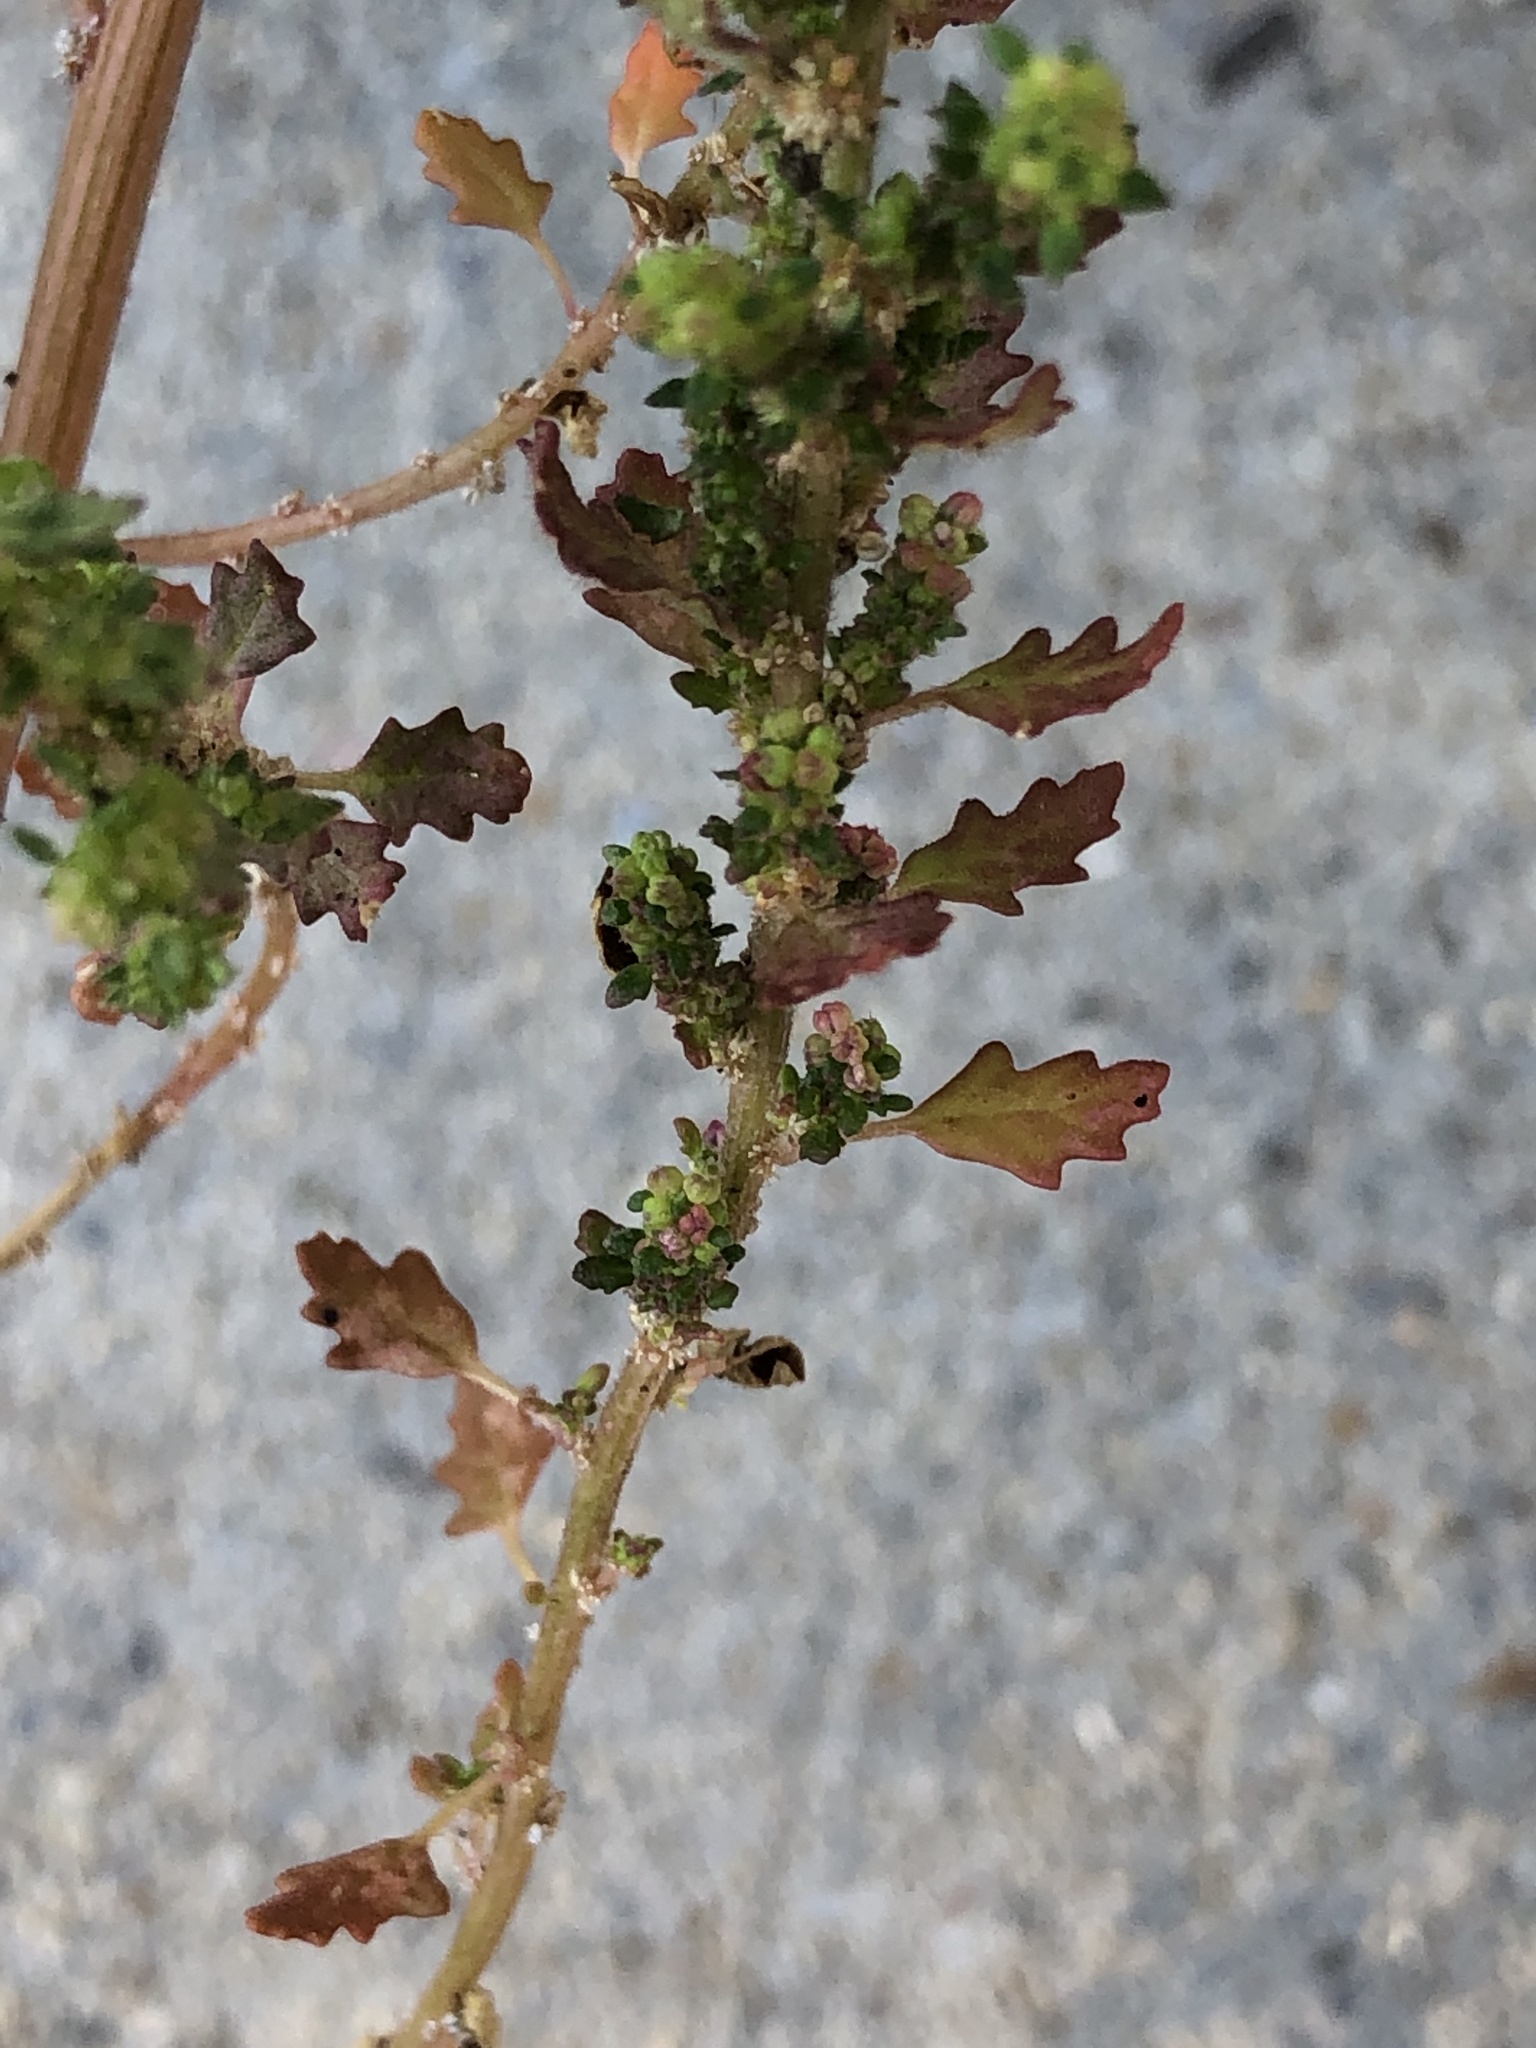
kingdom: Plantae
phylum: Tracheophyta
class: Magnoliopsida
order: Caryophyllales
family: Amaranthaceae
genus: Dysphania
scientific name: Dysphania pumilio
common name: Clammy goosefoot
